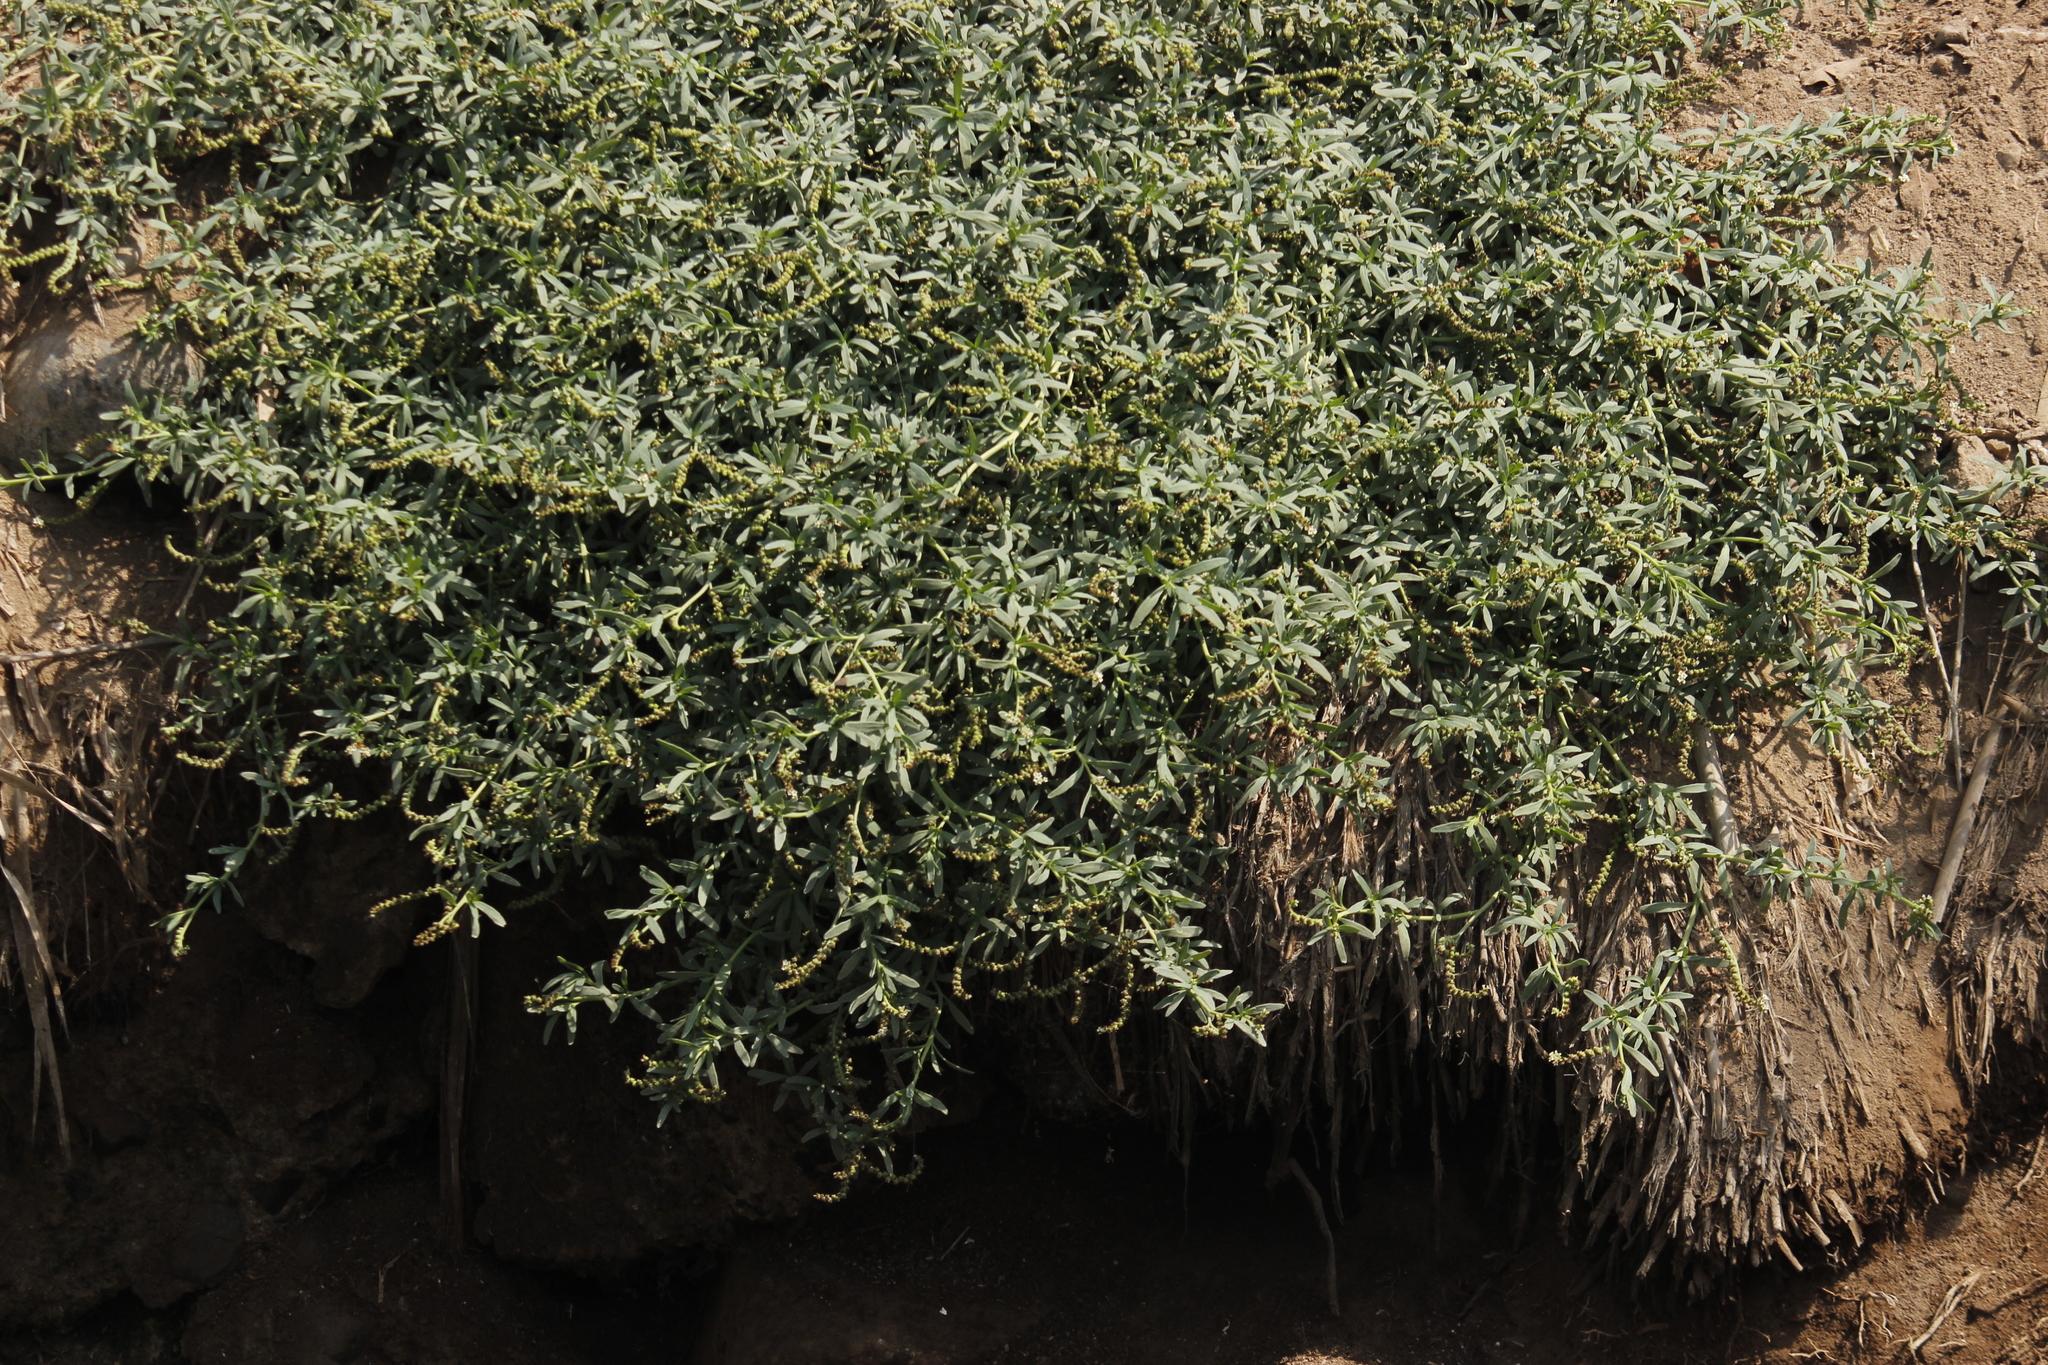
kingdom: Plantae
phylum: Tracheophyta
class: Magnoliopsida
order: Boraginales
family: Heliotropiaceae
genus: Heliotropium
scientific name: Heliotropium curassavicum
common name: Seaside heliotrope
